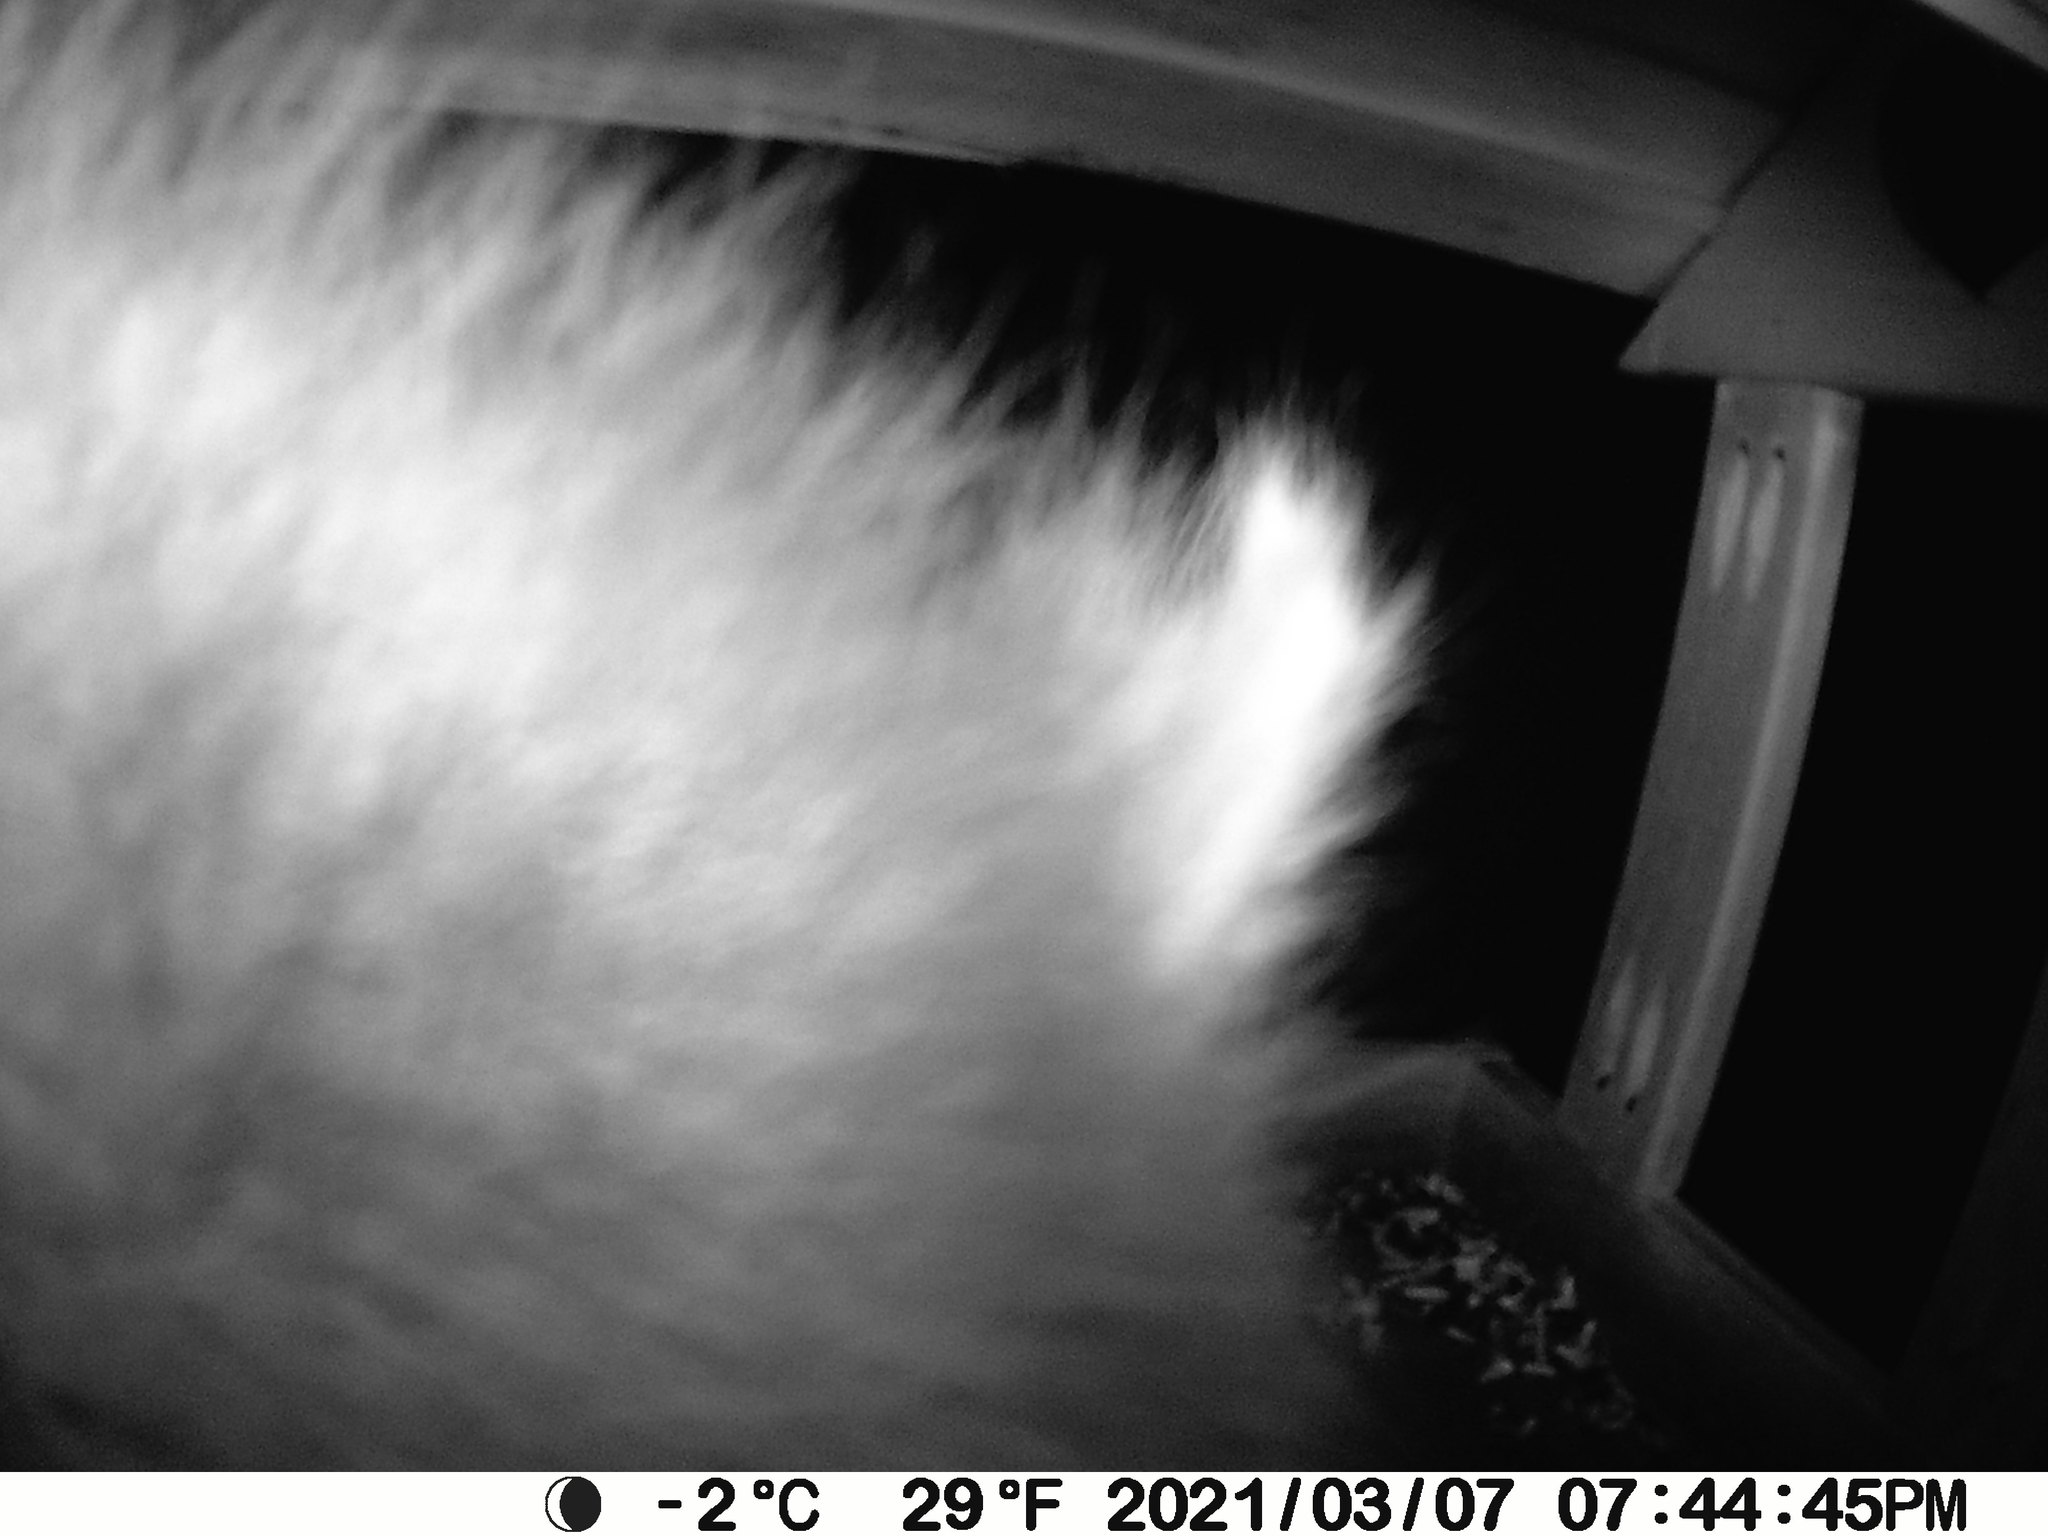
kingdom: Animalia
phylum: Chordata
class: Mammalia
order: Carnivora
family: Procyonidae
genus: Procyon
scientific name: Procyon lotor
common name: Raccoon
